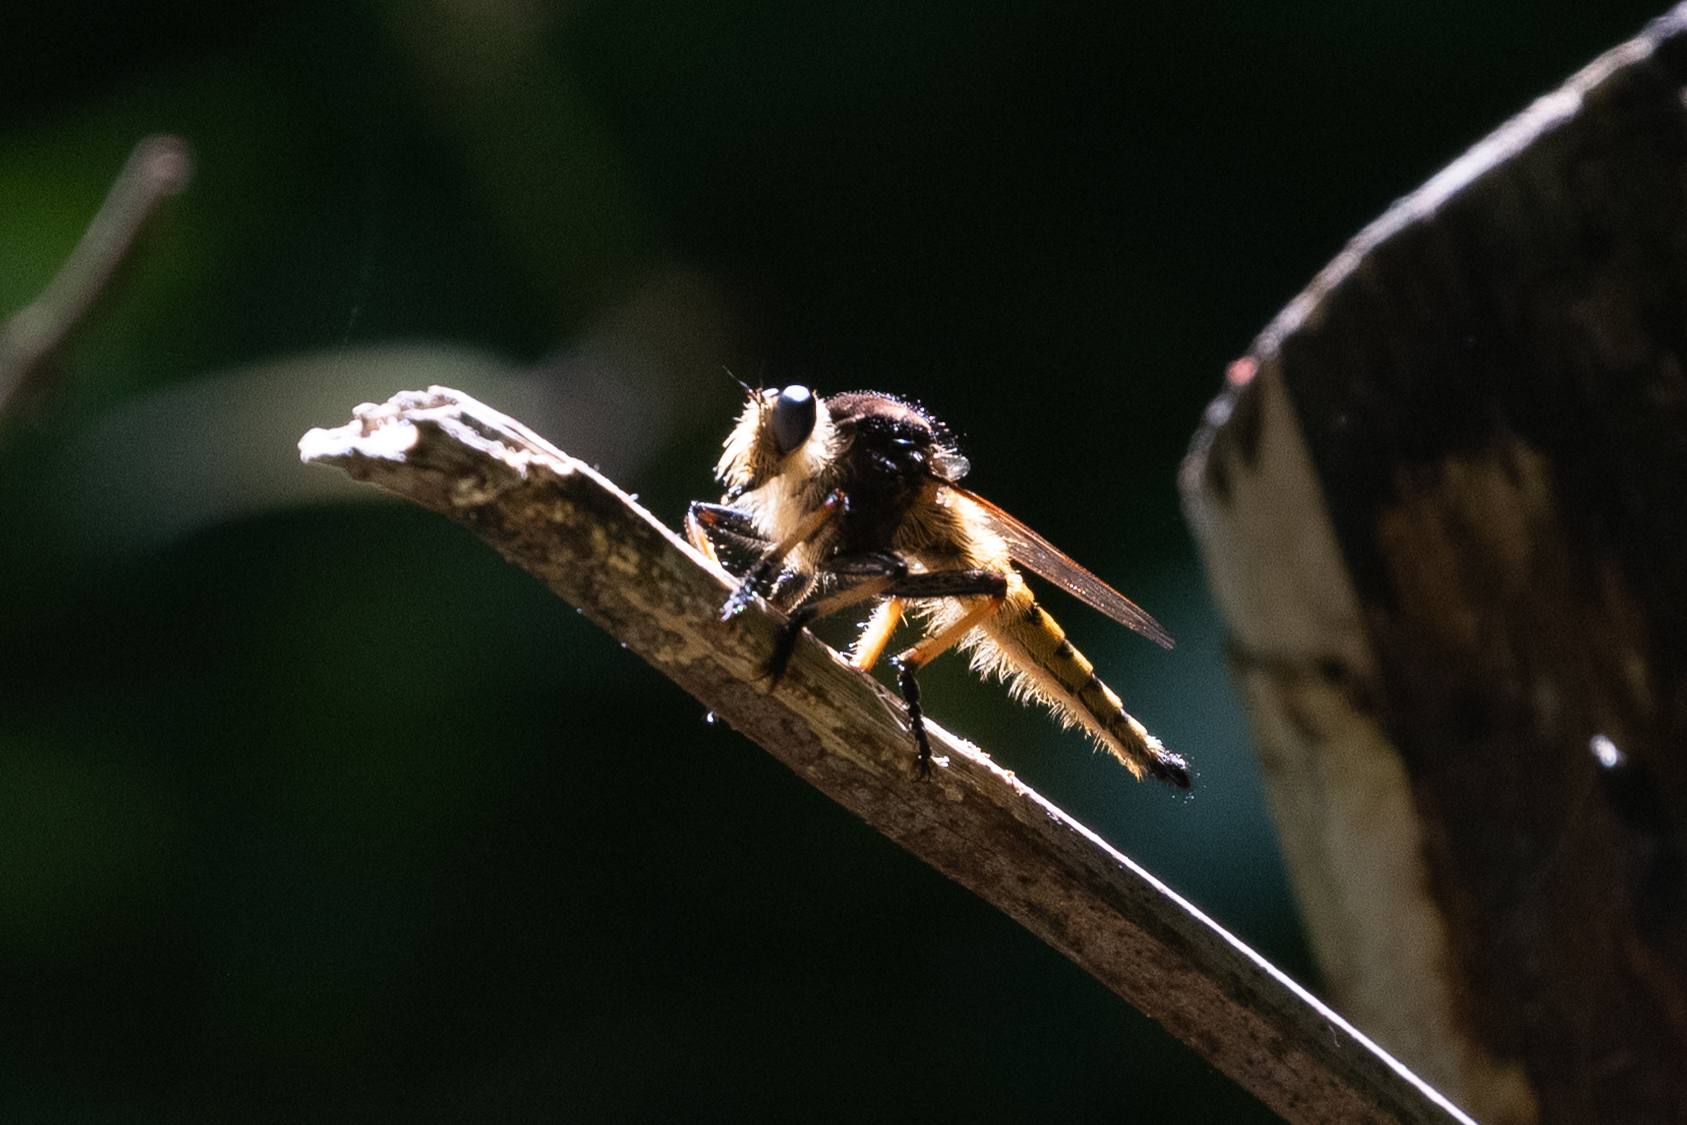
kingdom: Animalia
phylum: Arthropoda
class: Insecta
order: Diptera
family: Asilidae
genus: Promachus
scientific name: Promachus rufipes
